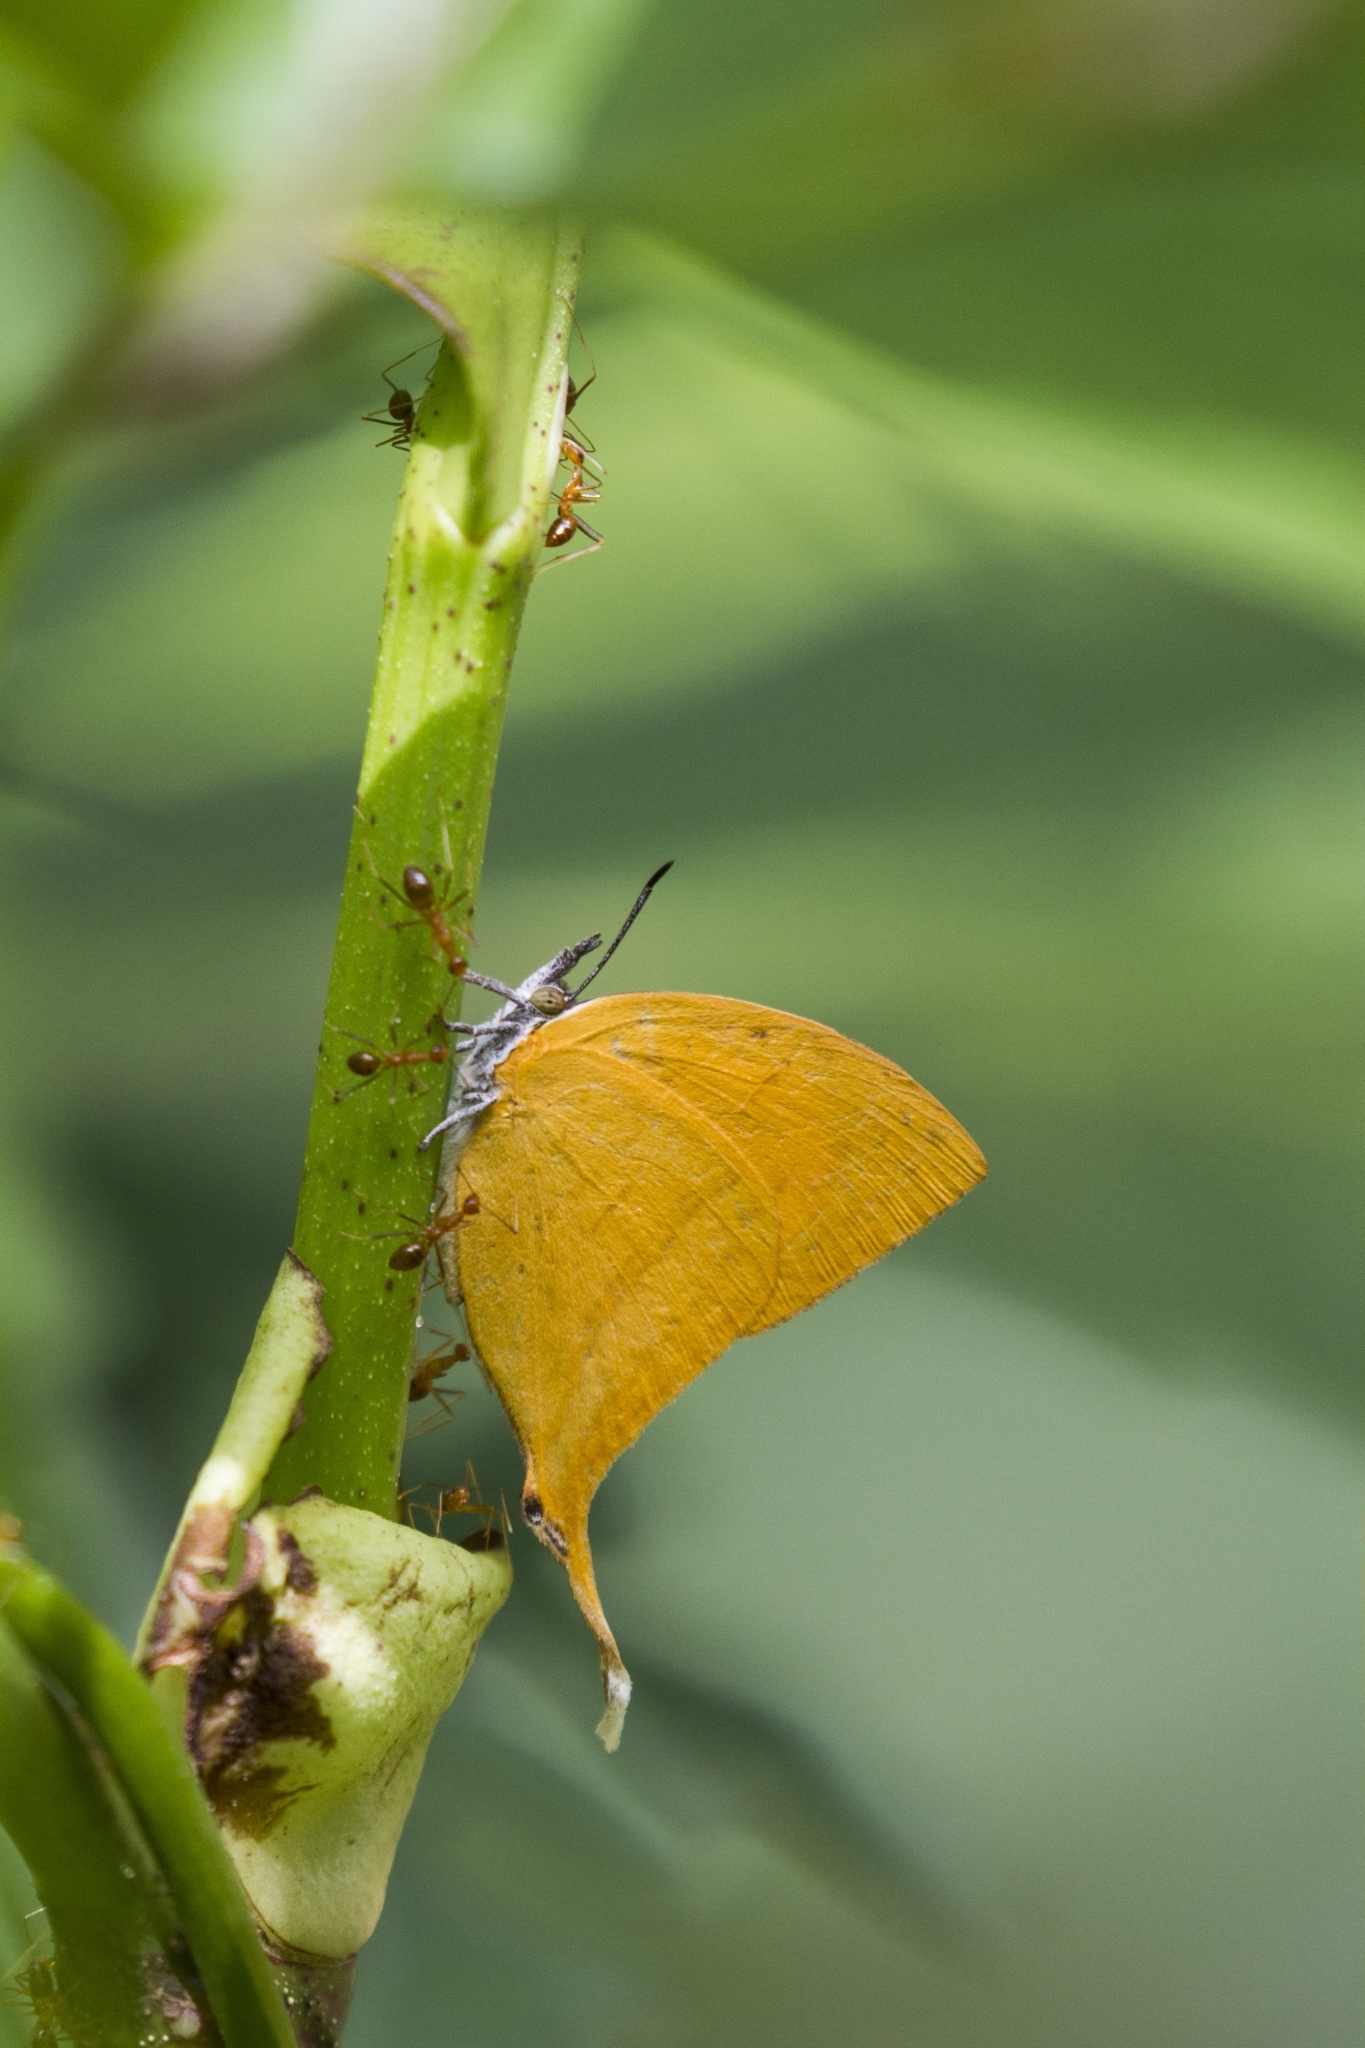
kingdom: Animalia
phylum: Arthropoda
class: Insecta
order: Lepidoptera
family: Lycaenidae
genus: Loxura
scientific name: Loxura atymnus
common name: Common yamfly
